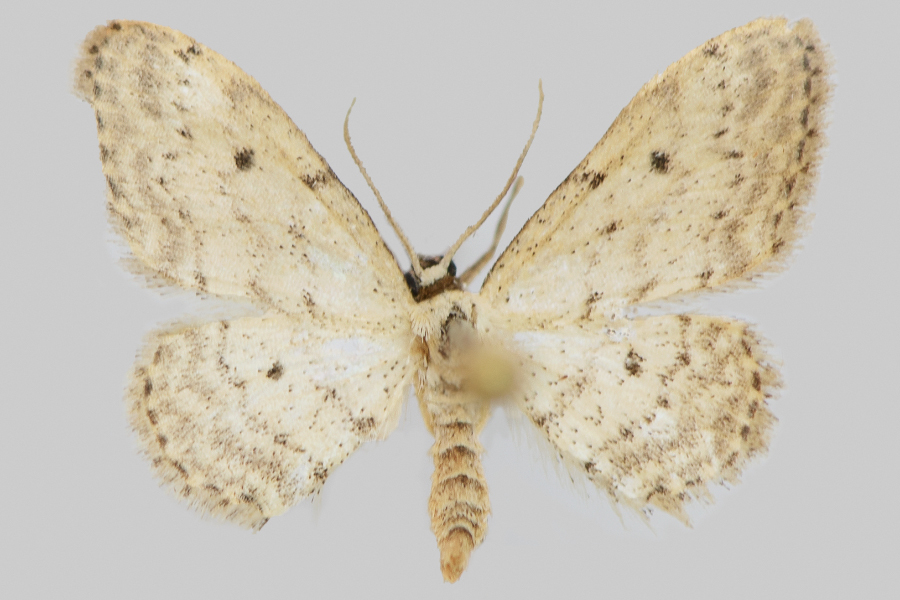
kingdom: Animalia
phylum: Arthropoda
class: Insecta
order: Lepidoptera
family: Geometridae
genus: Idaea
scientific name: Idaea seriata
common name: Small dusty wave
